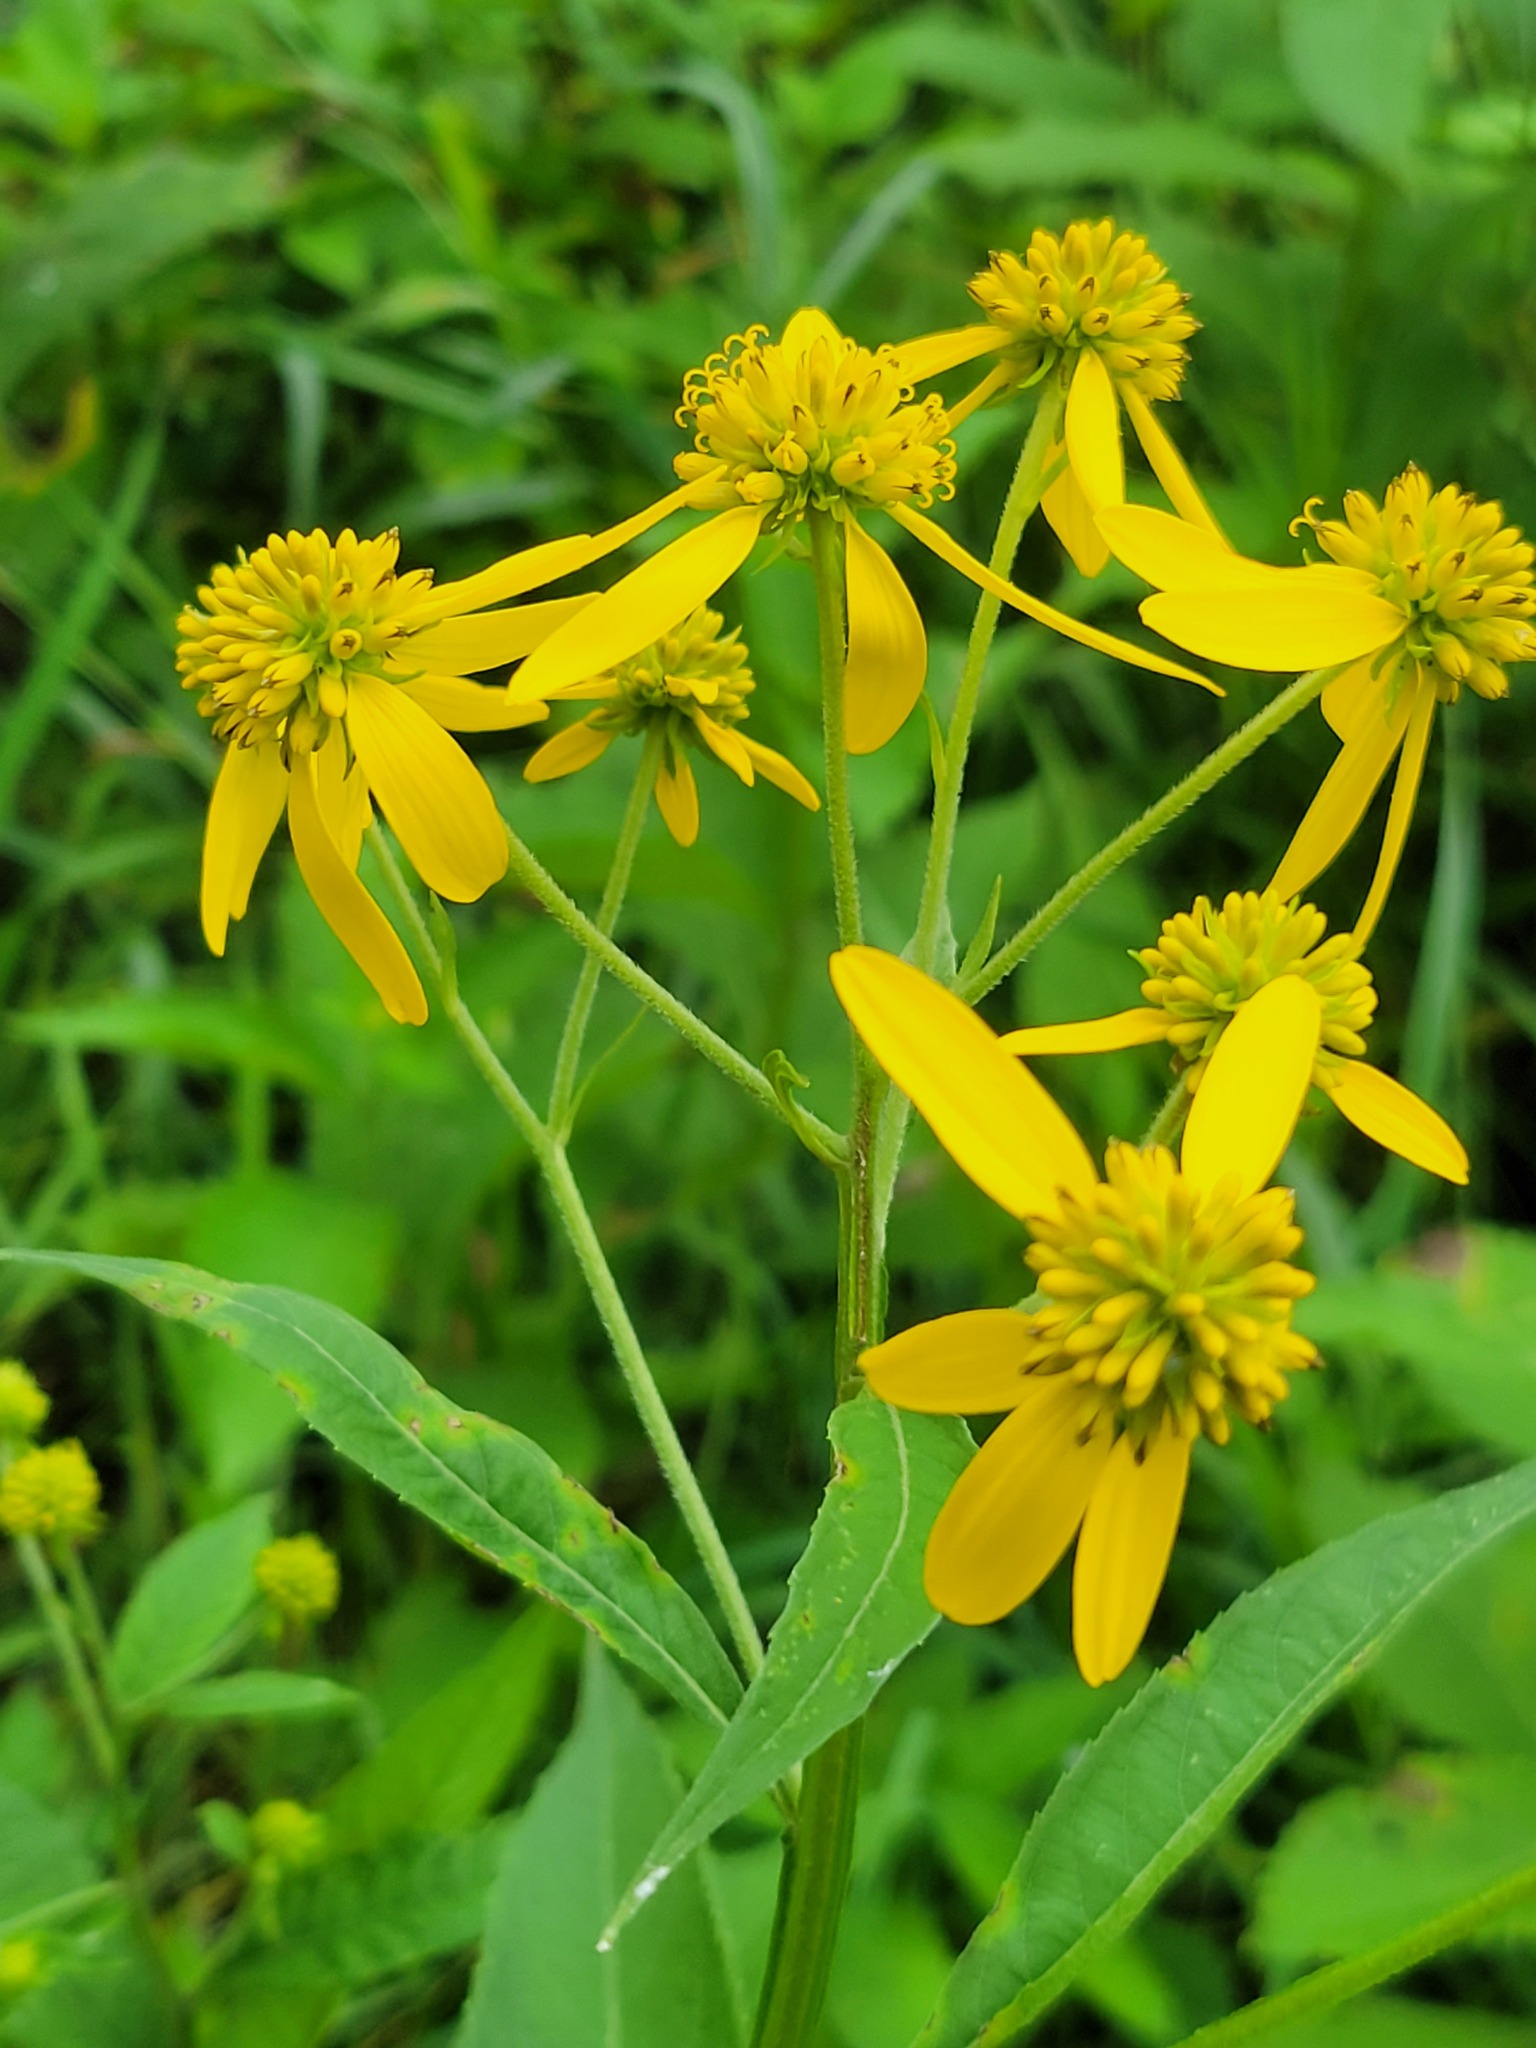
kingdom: Plantae
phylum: Tracheophyta
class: Magnoliopsida
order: Asterales
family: Asteraceae
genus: Verbesina
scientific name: Verbesina alternifolia
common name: Wingstem
